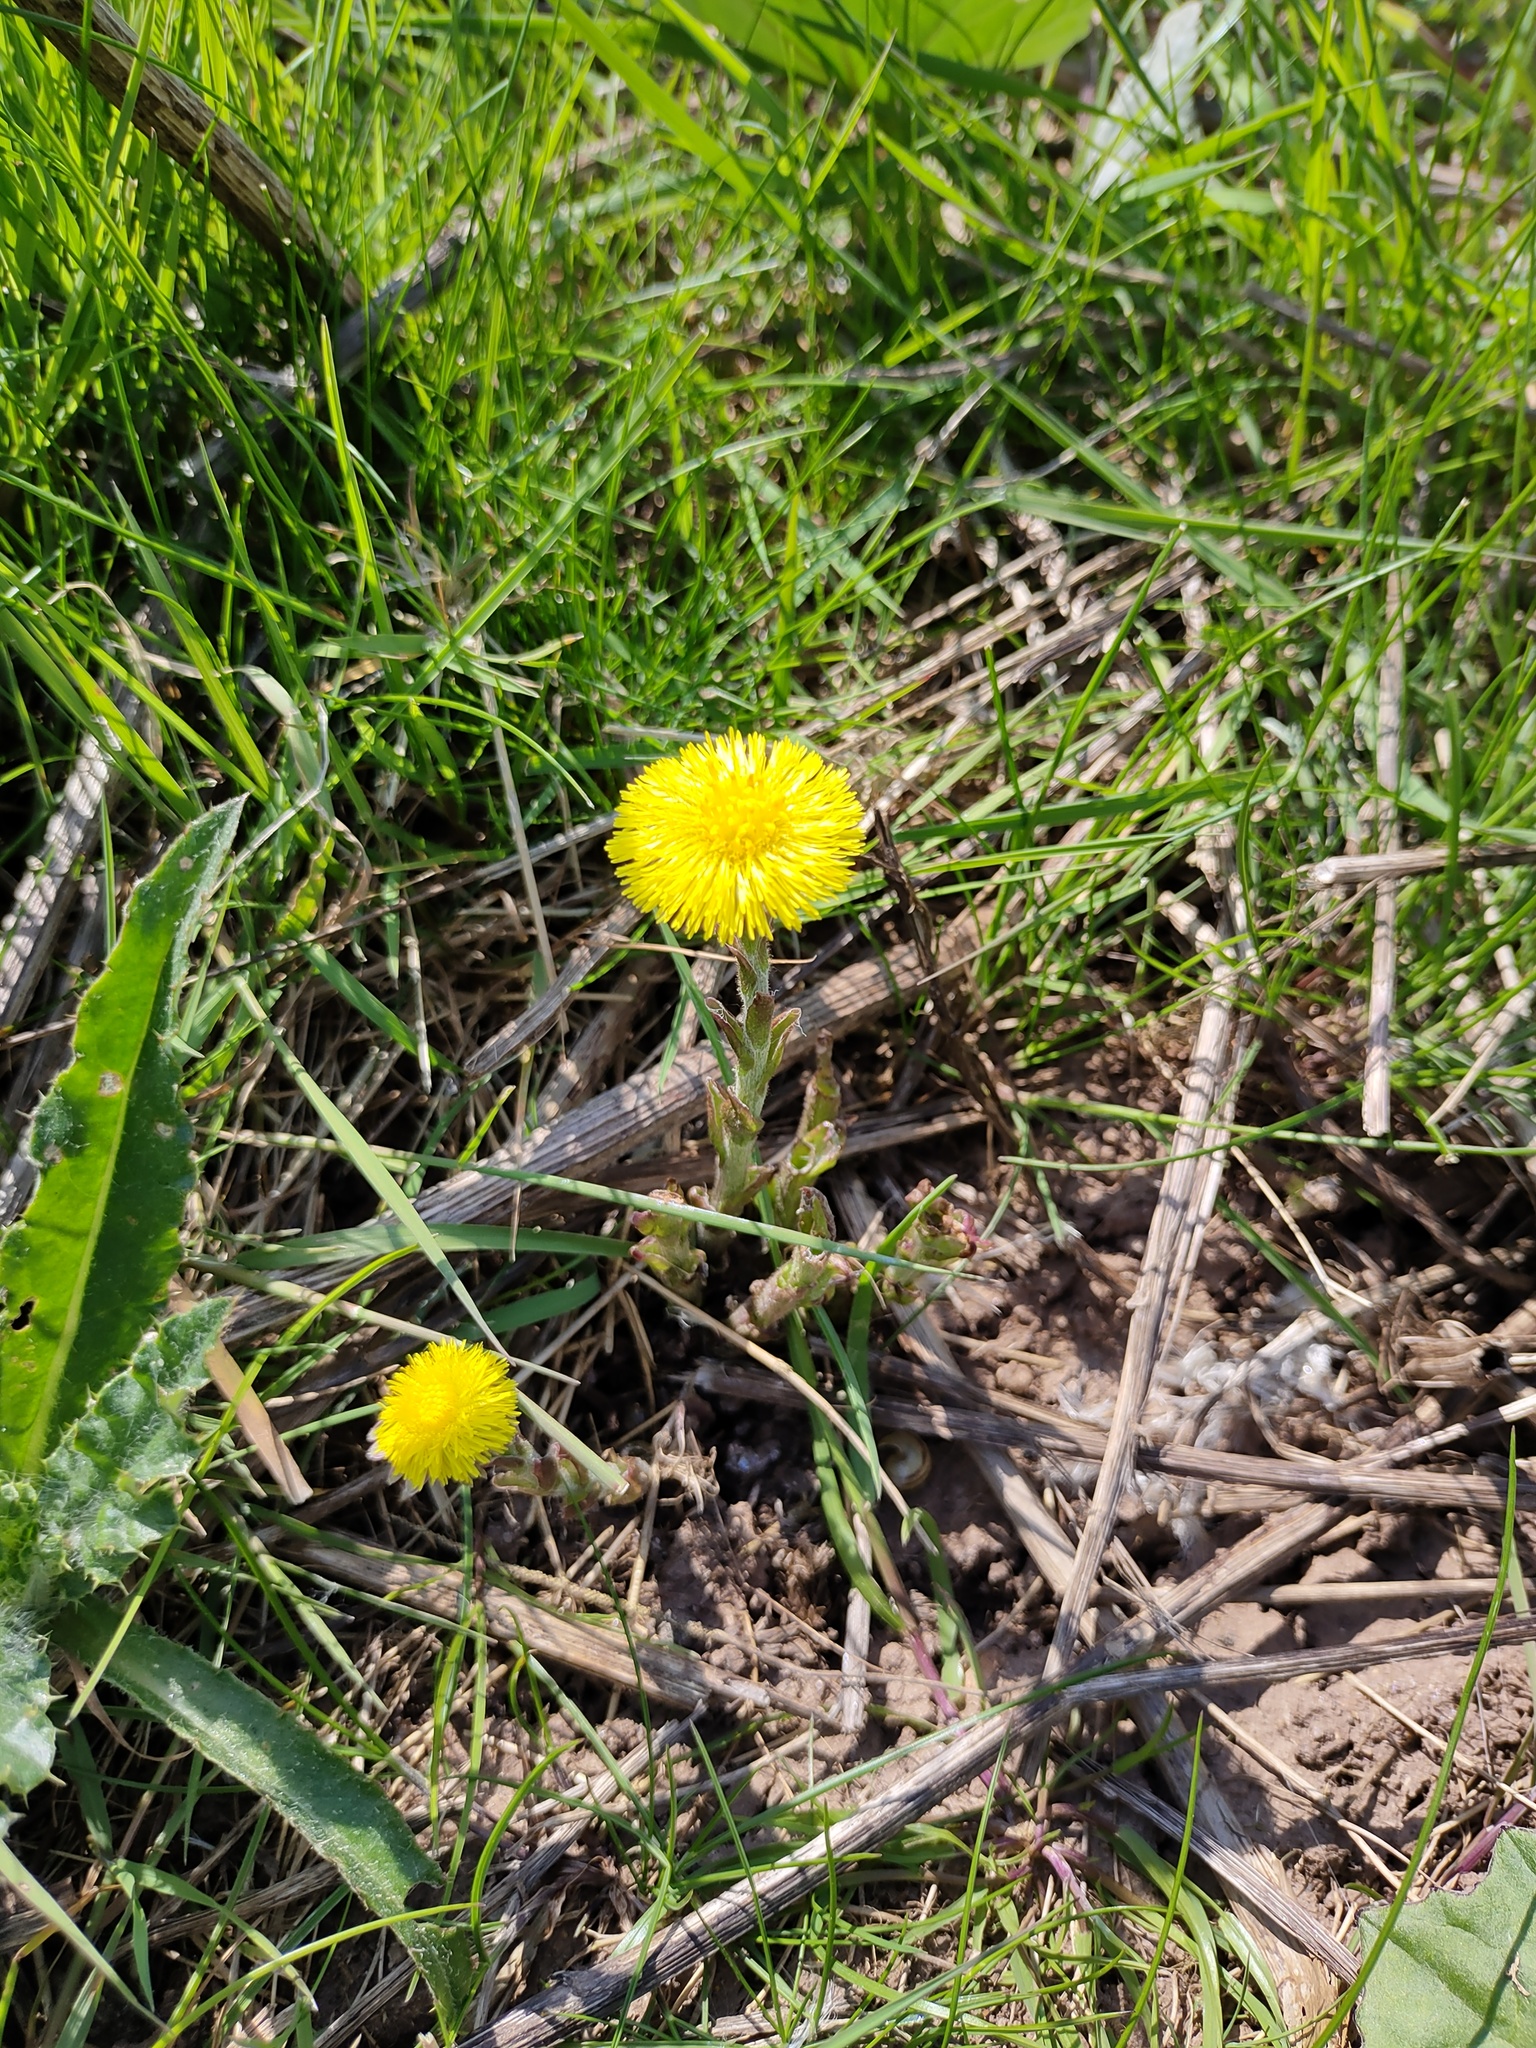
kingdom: Plantae
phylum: Tracheophyta
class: Magnoliopsida
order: Asterales
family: Asteraceae
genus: Tussilago
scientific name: Tussilago farfara
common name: Coltsfoot
